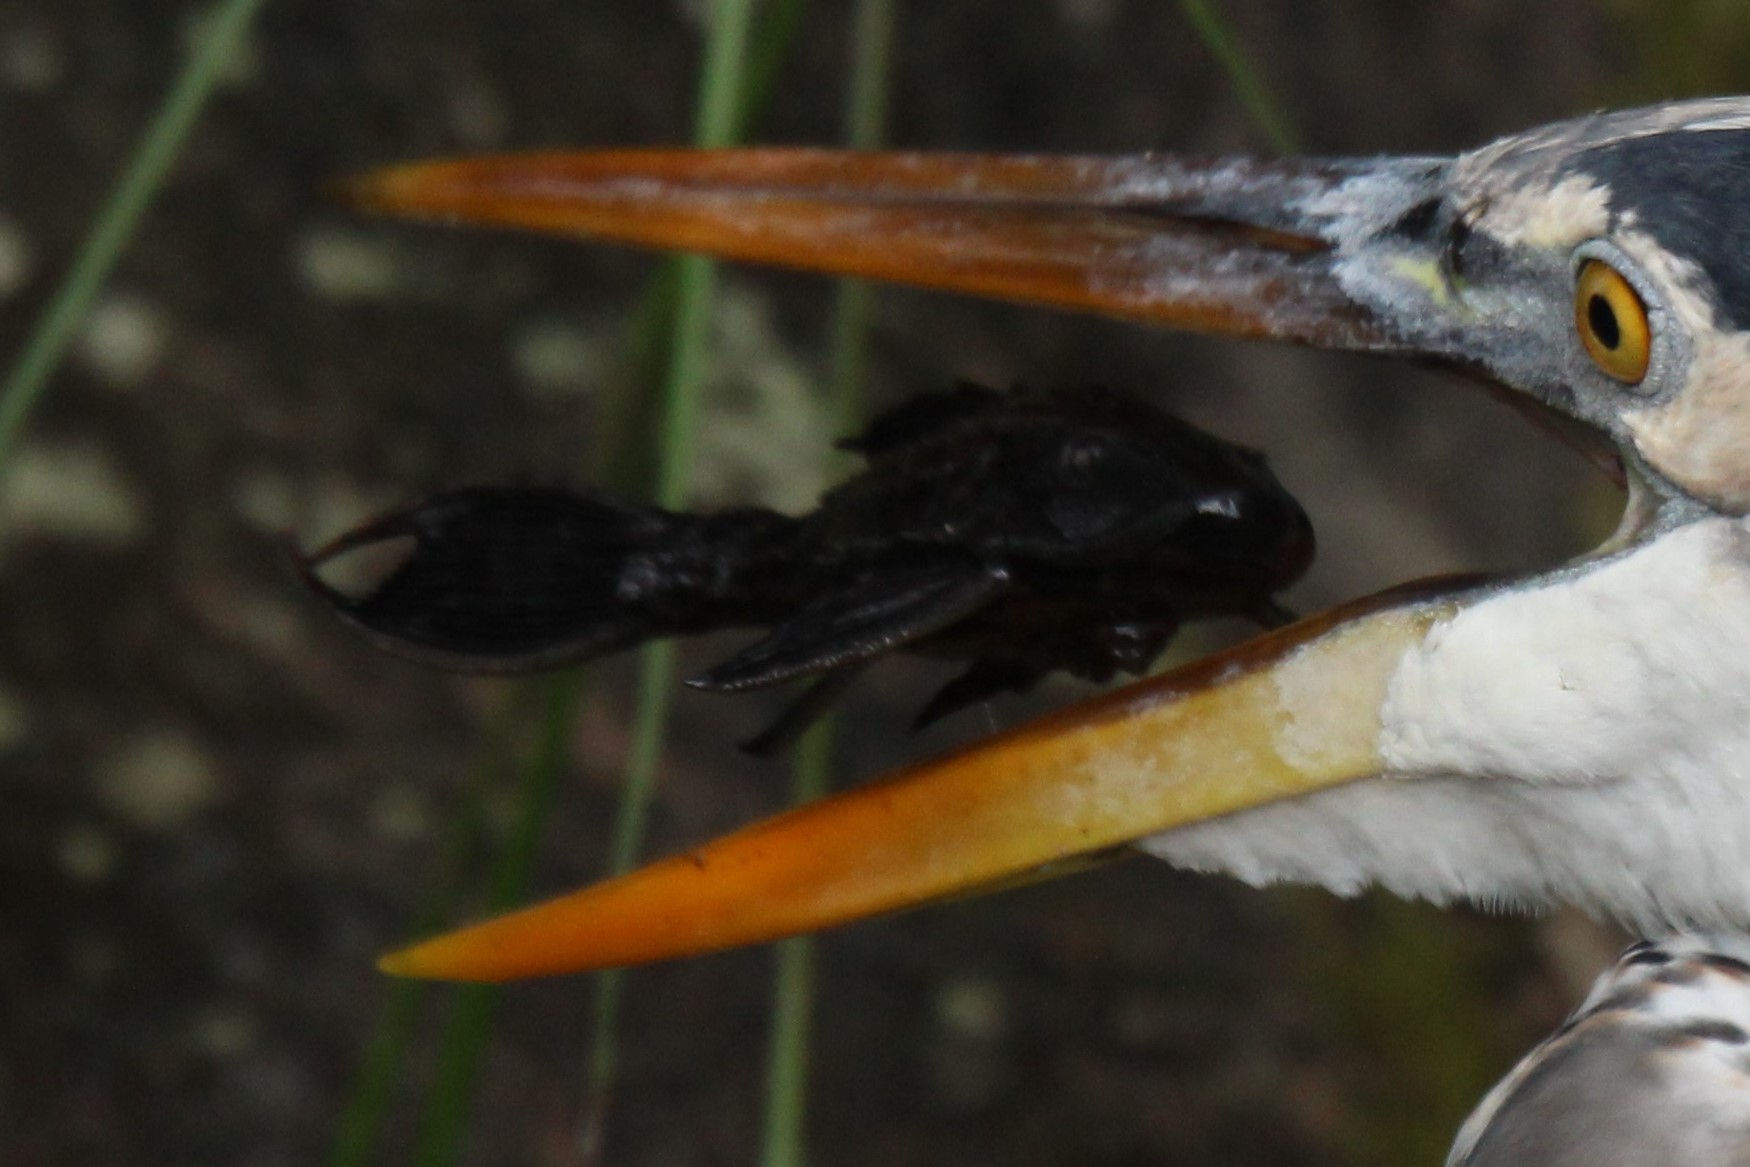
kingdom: Animalia
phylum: Chordata
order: Siluriformes
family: Loricariidae
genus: Pterygoplichthys
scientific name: Pterygoplichthys
